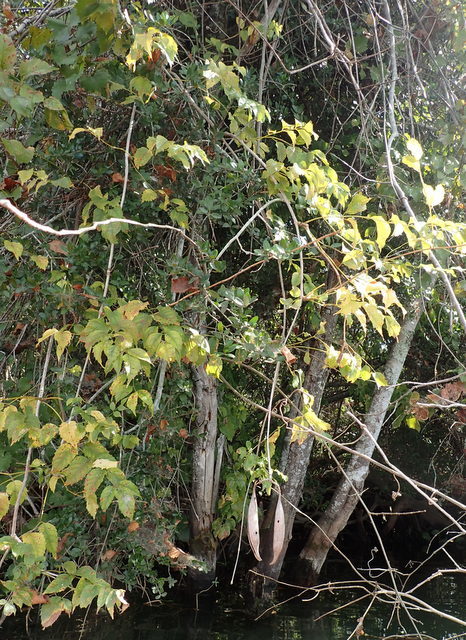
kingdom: Plantae
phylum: Tracheophyta
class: Magnoliopsida
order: Lamiales
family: Bignoniaceae
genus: Campsis
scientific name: Campsis radicans
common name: Trumpet-creeper
